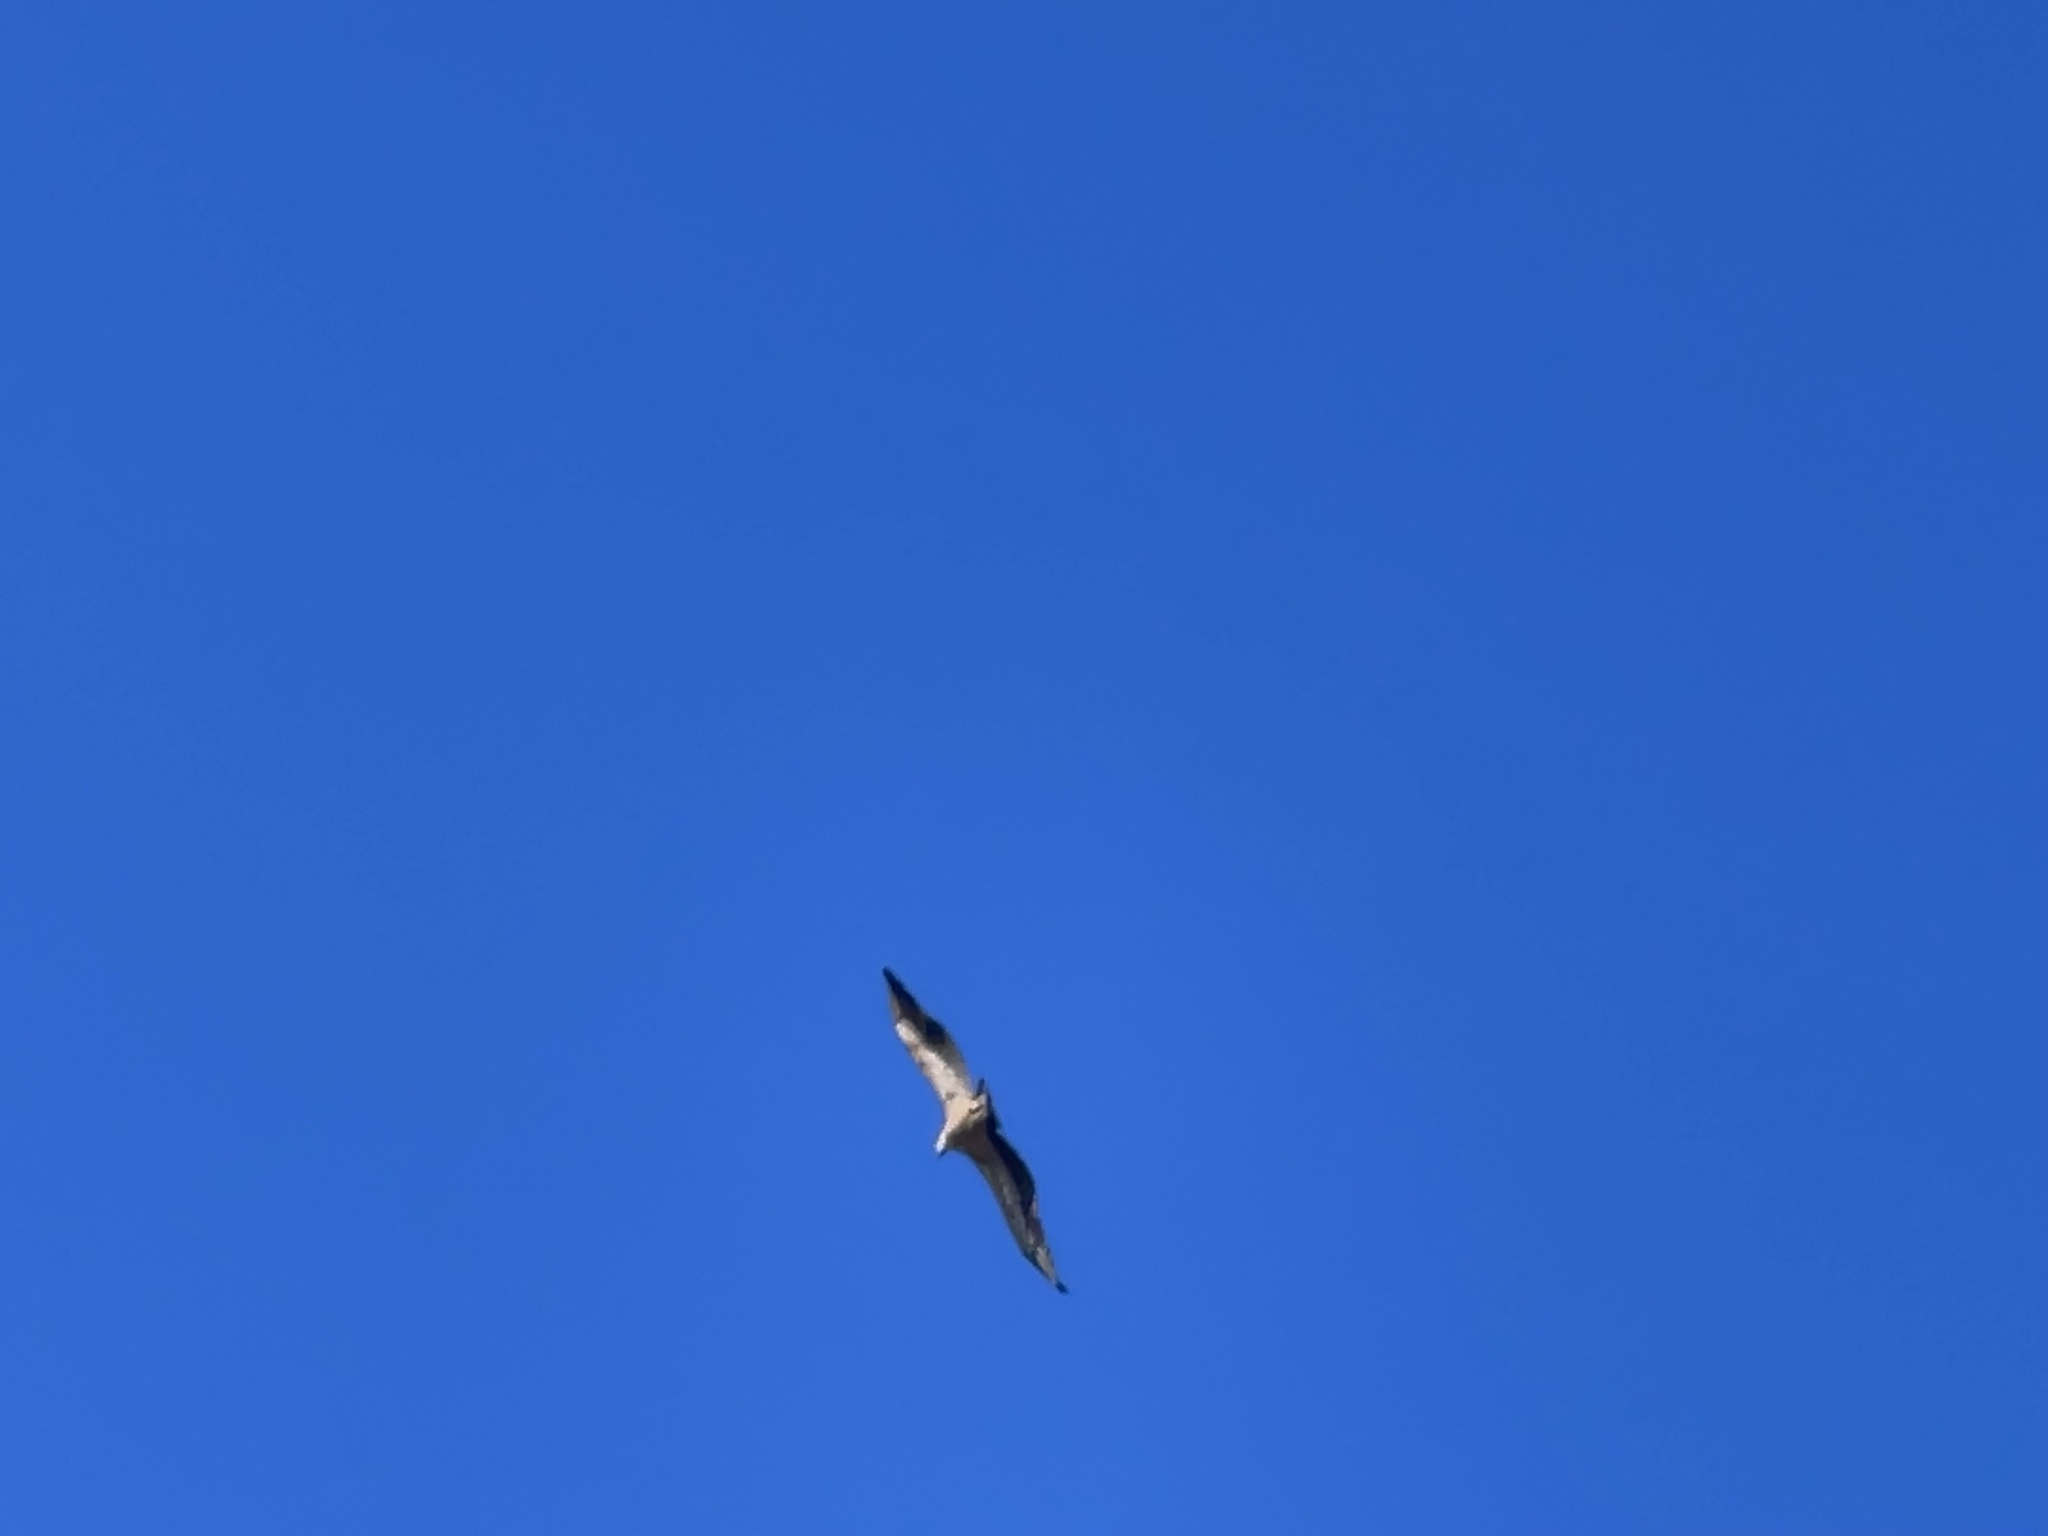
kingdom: Animalia
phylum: Chordata
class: Aves
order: Accipitriformes
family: Accipitridae
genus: Gyps
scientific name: Gyps fulvus
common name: Griffon vulture
